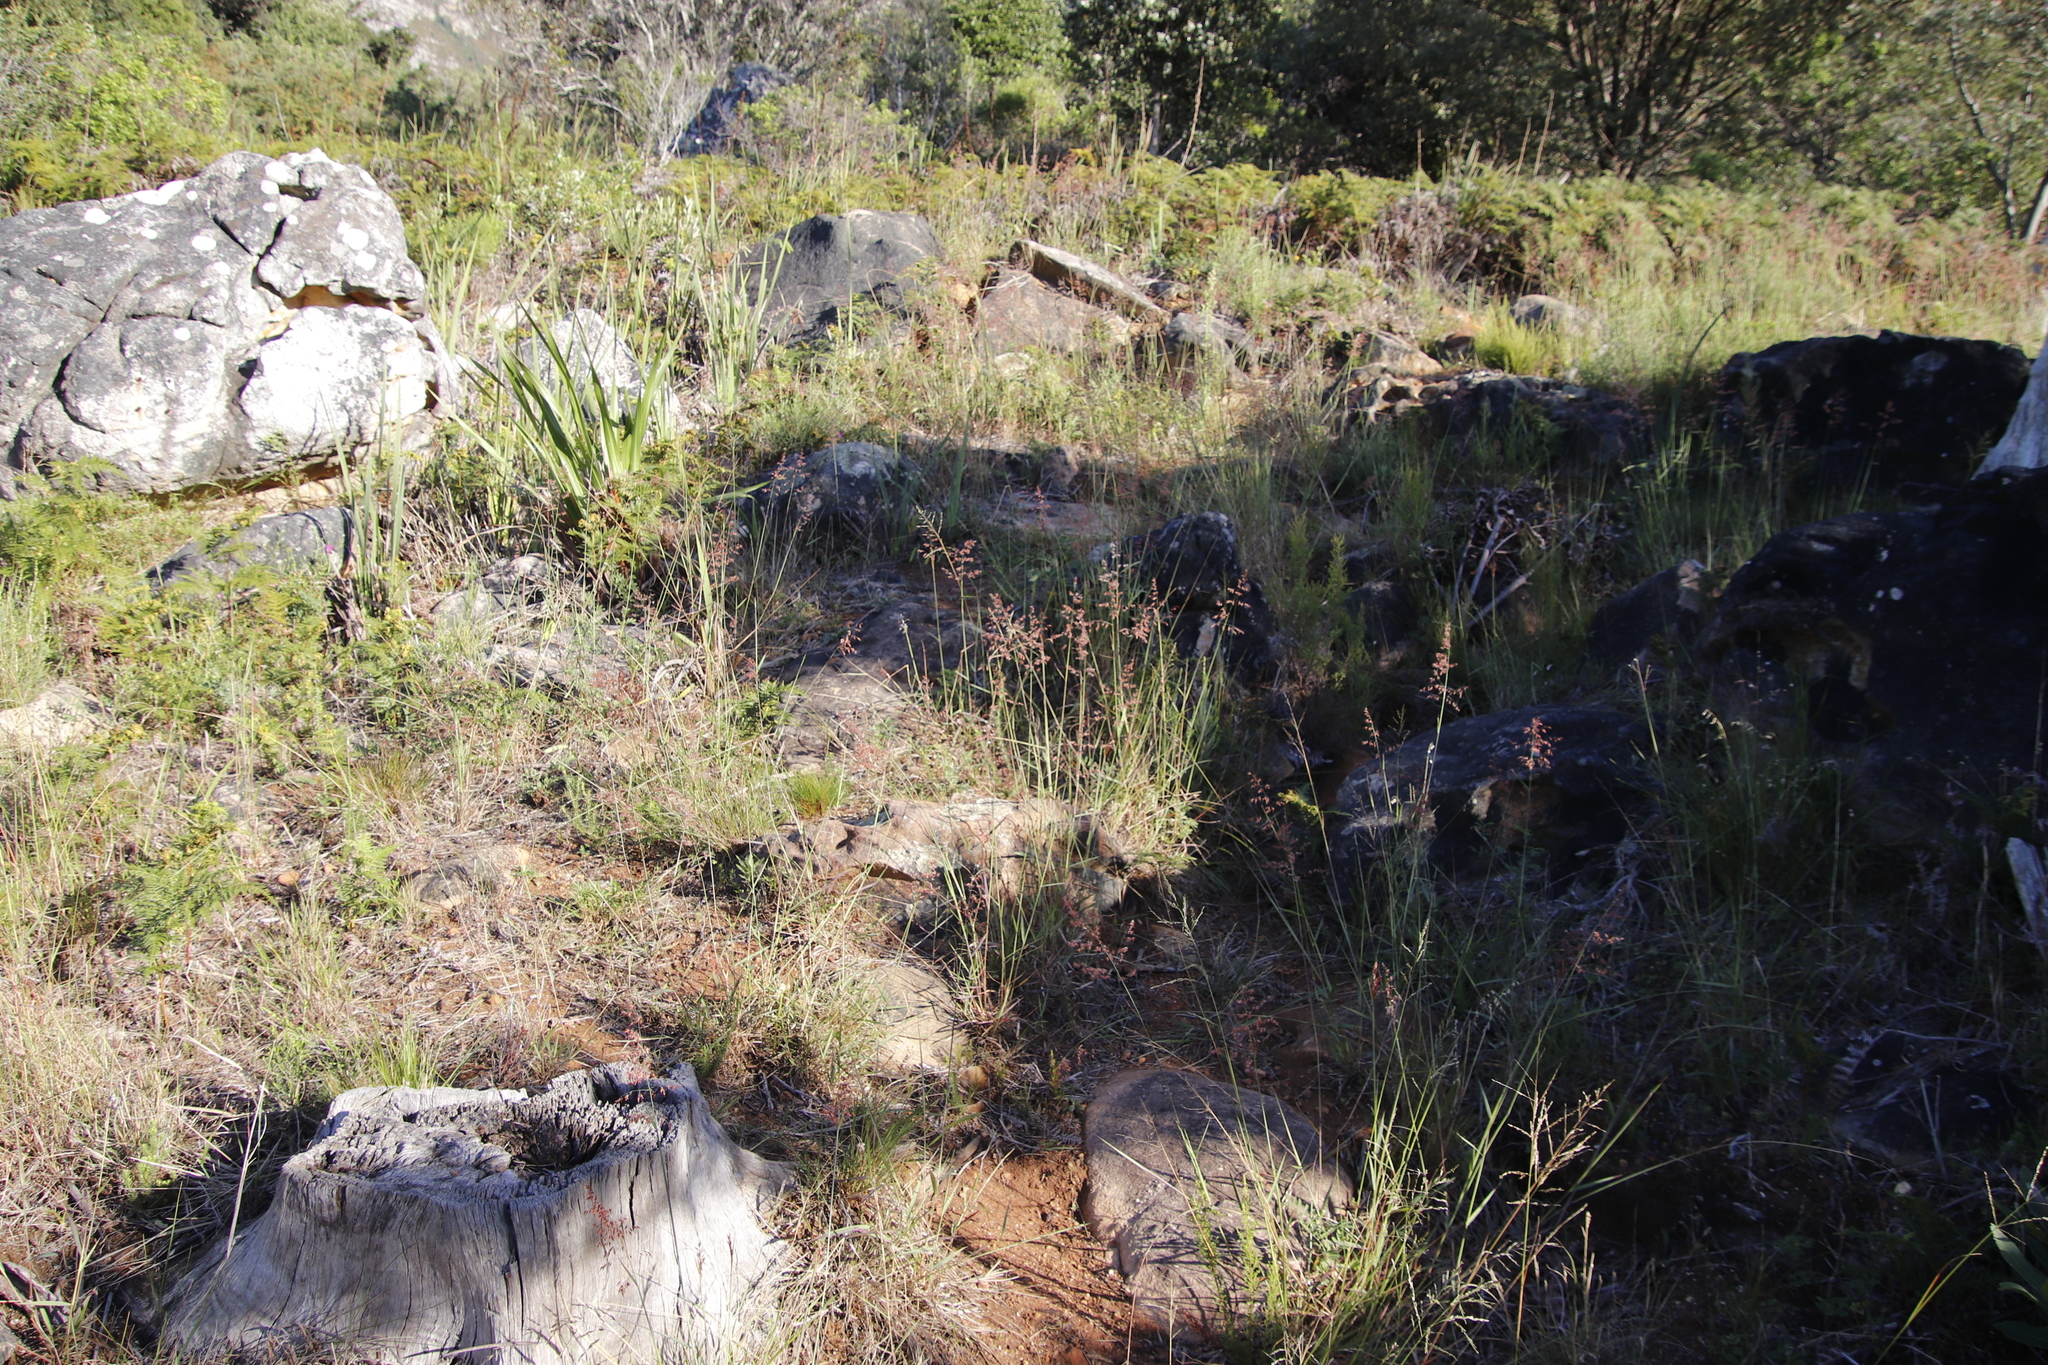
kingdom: Plantae
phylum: Tracheophyta
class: Liliopsida
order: Poales
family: Poaceae
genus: Melinis
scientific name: Melinis repens
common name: Rose natal grass
